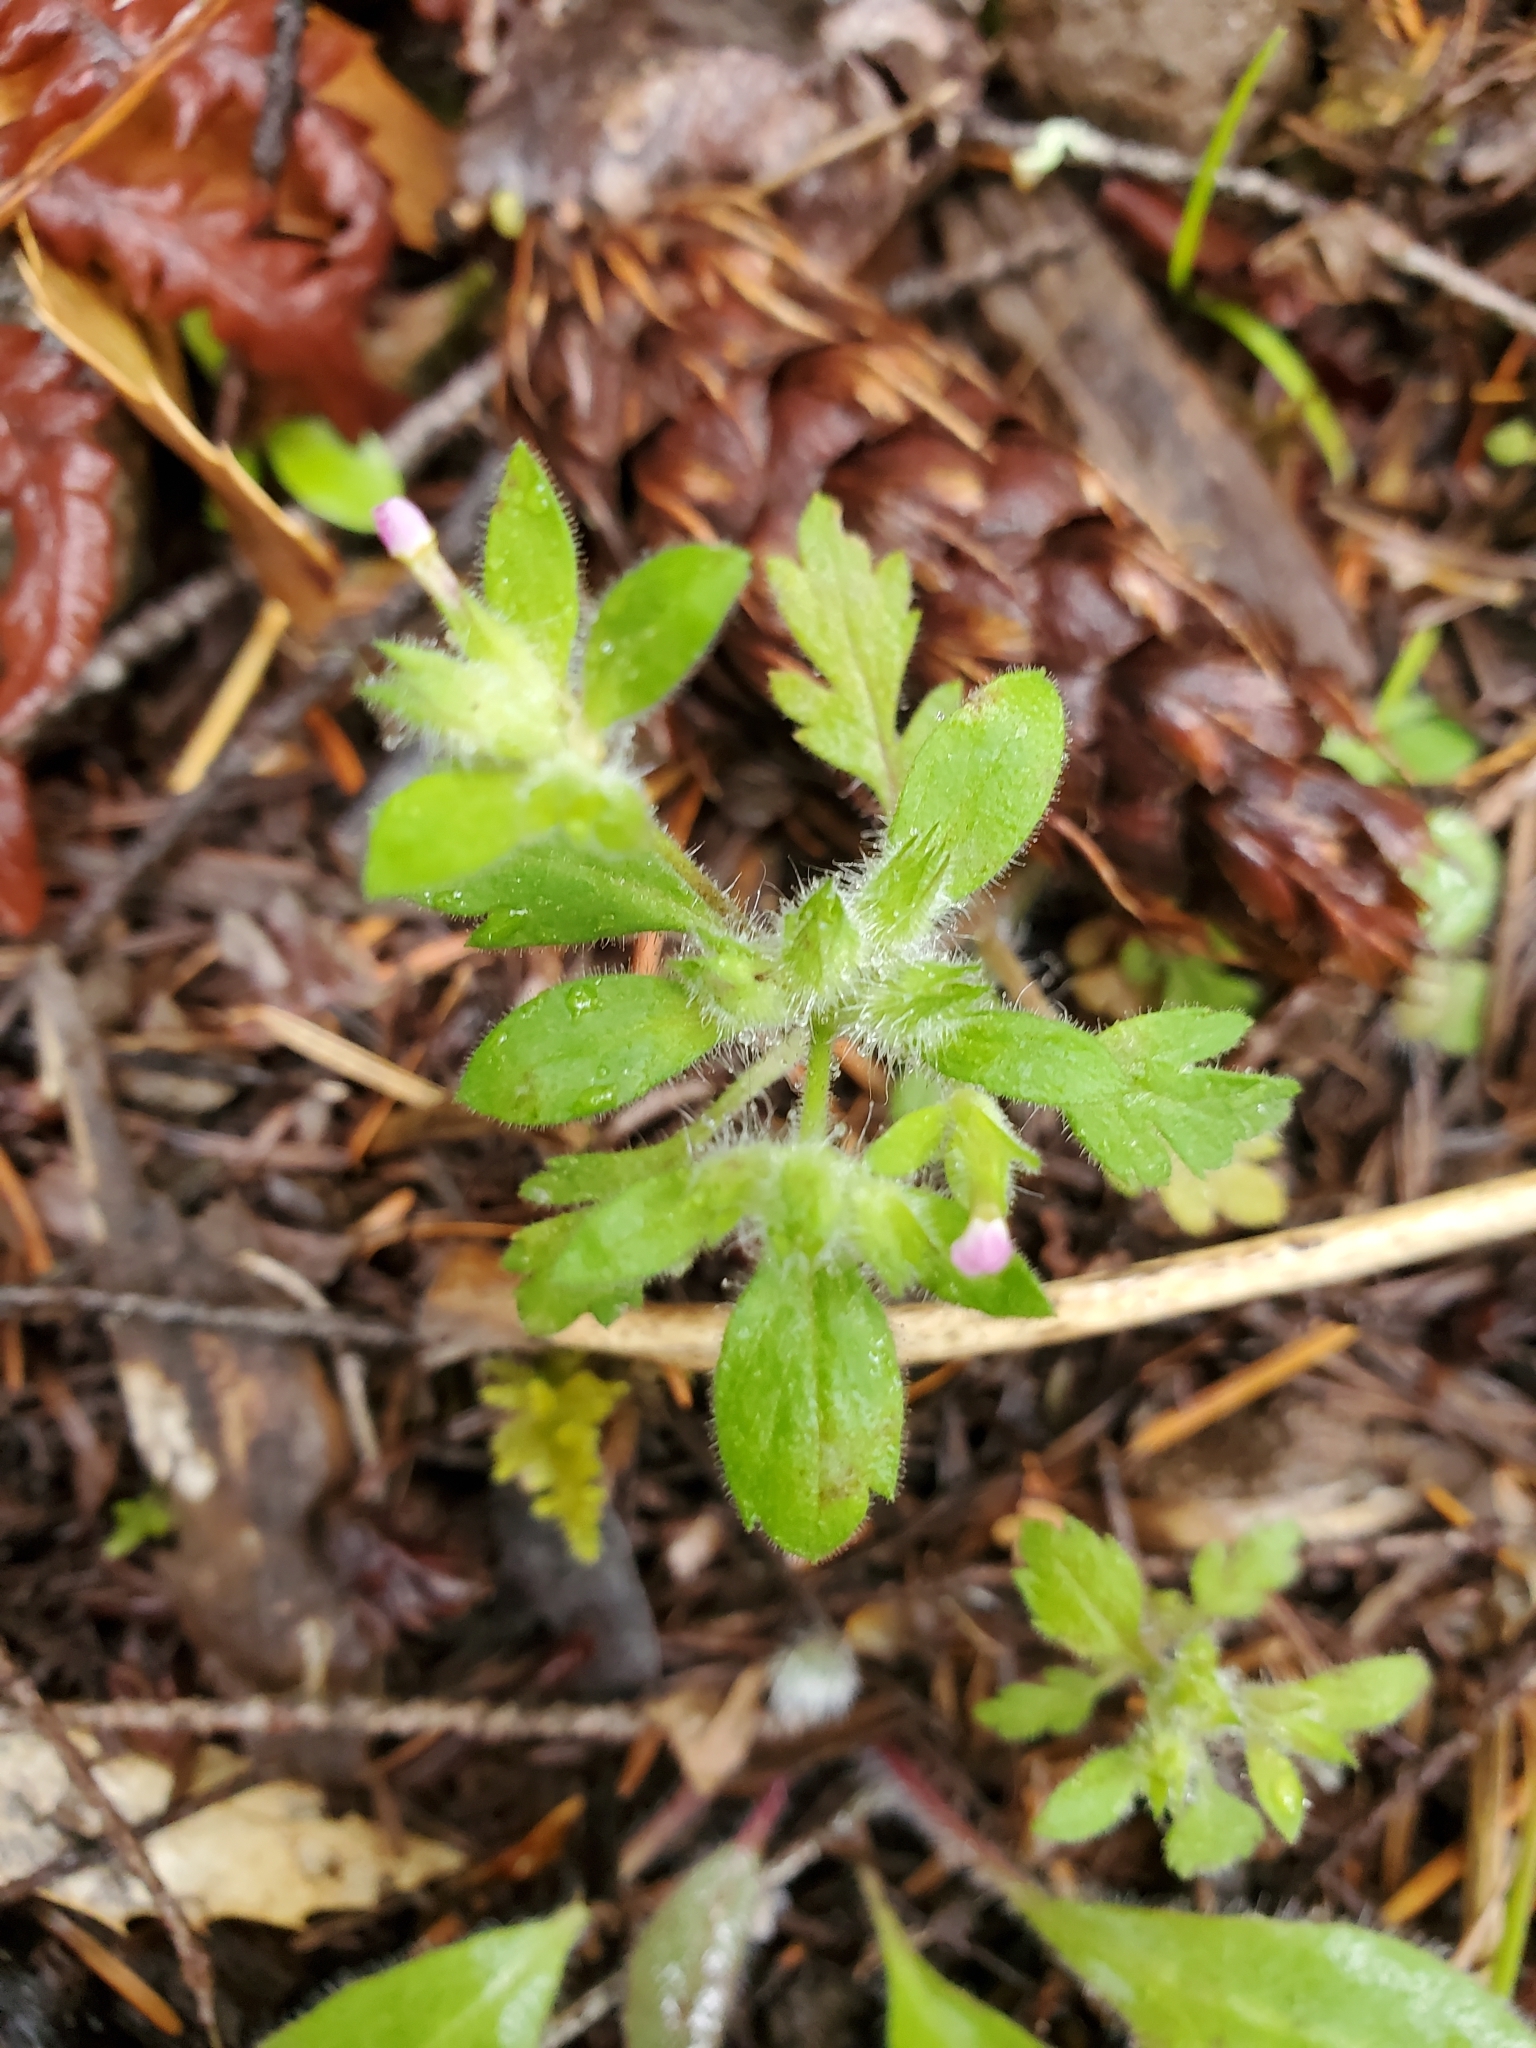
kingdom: Plantae
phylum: Tracheophyta
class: Magnoliopsida
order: Ericales
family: Polemoniaceae
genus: Collomia
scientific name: Collomia heterophylla
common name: Variable-leaved collomia
